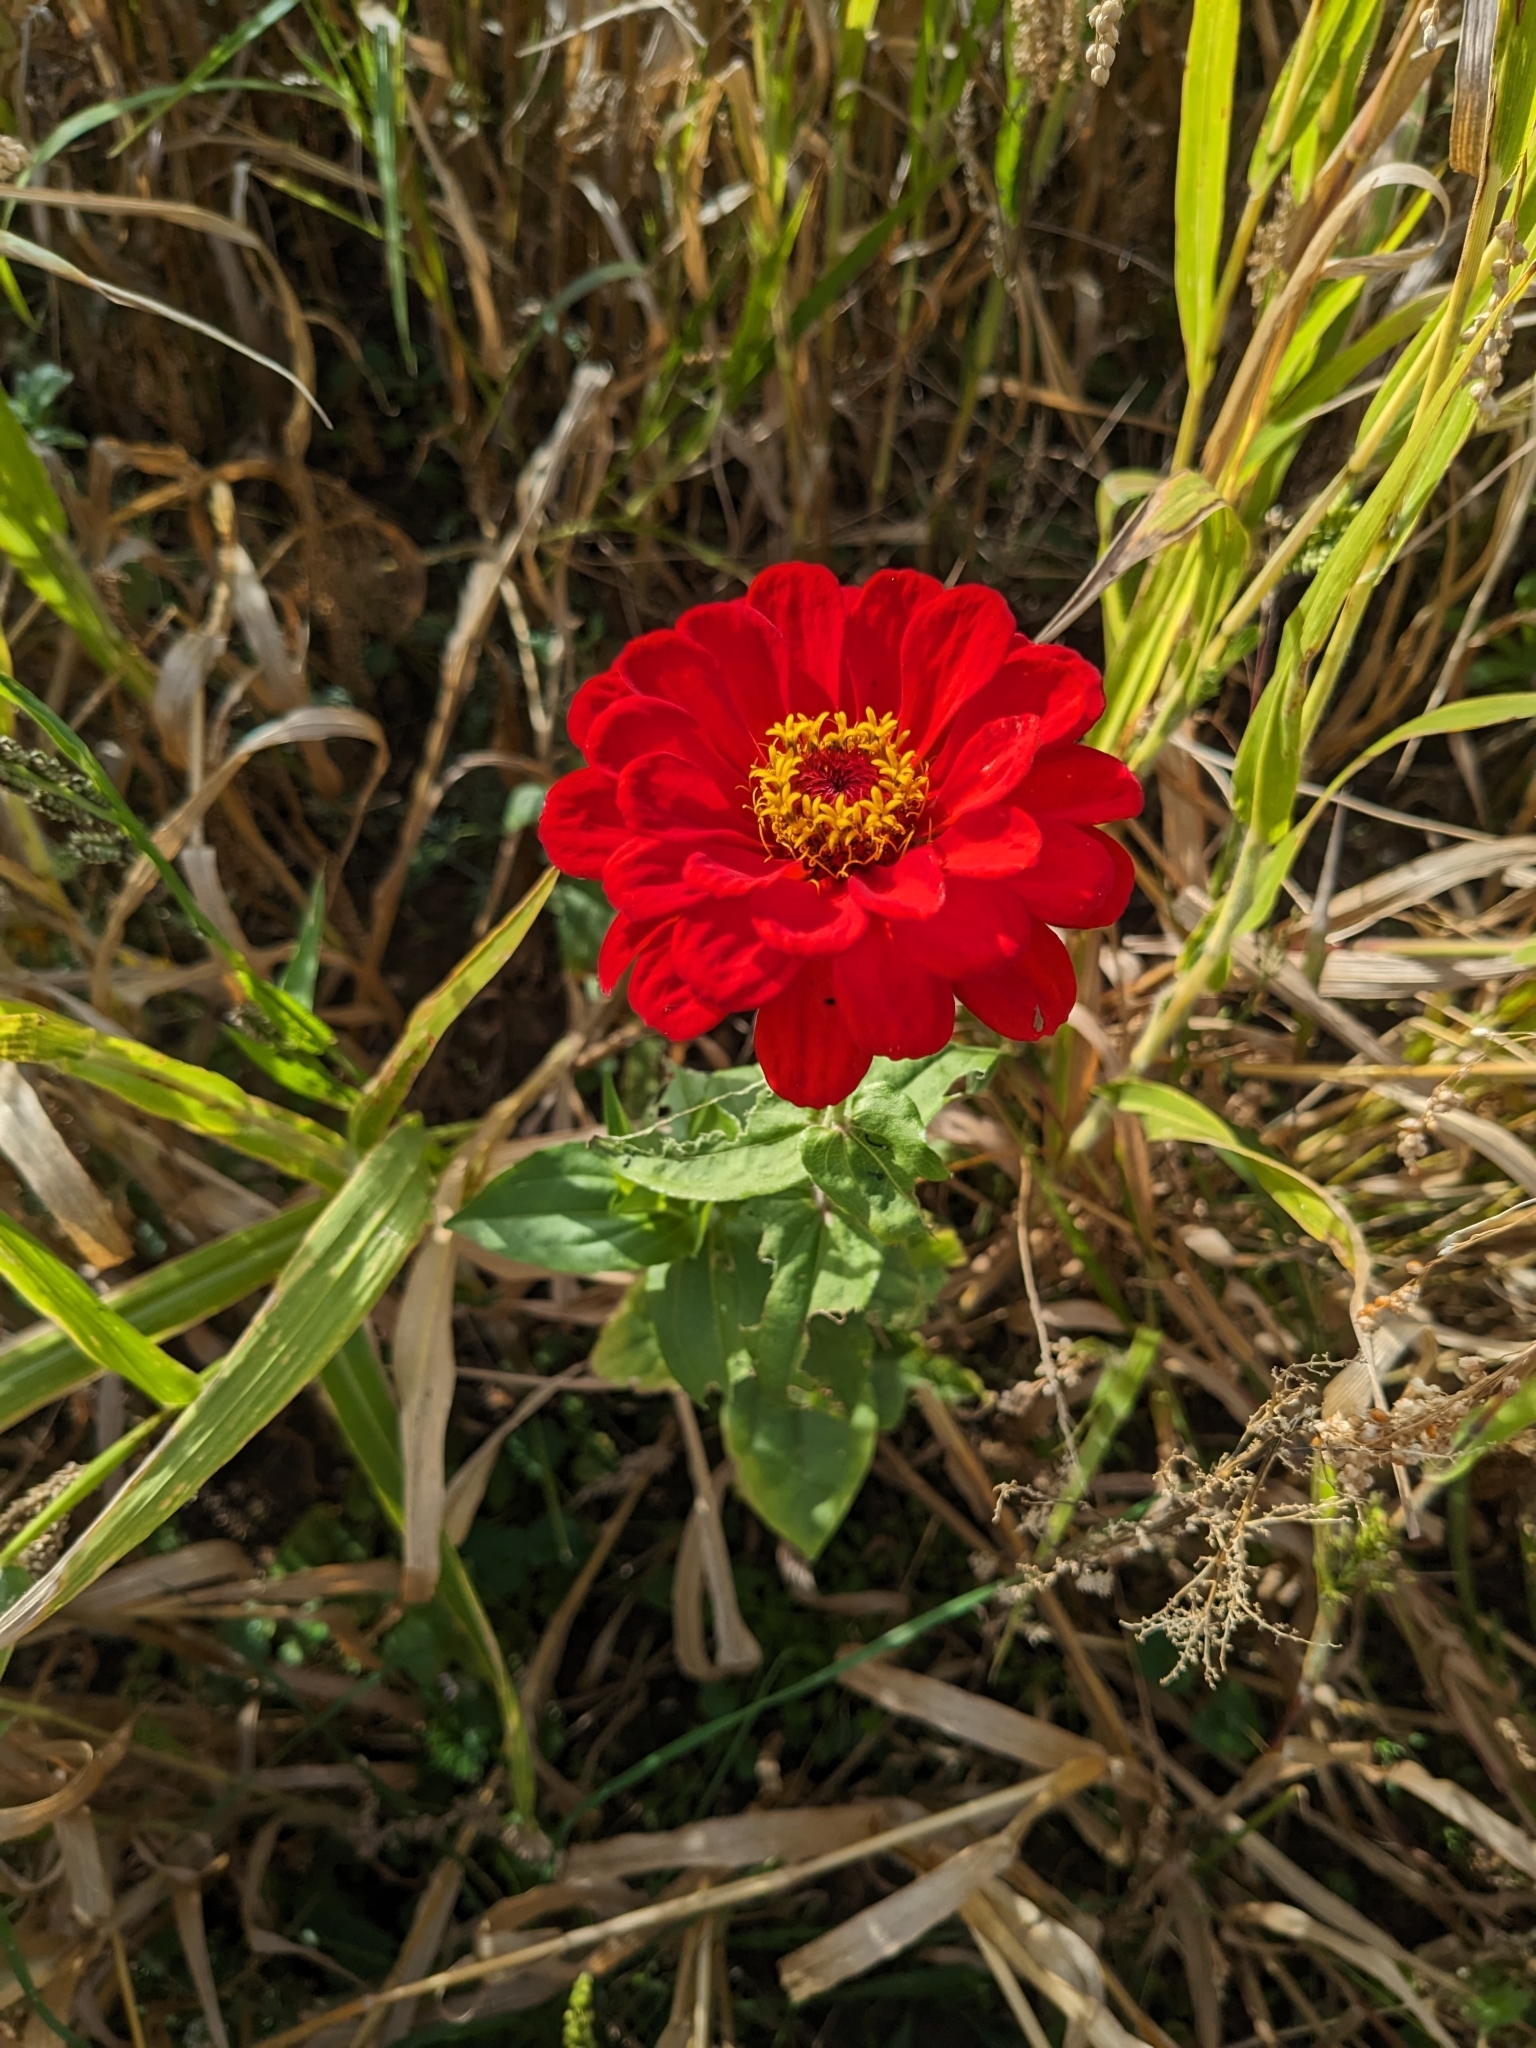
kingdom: Plantae
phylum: Tracheophyta
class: Magnoliopsida
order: Asterales
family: Asteraceae
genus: Zinnia
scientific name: Zinnia elegans
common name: Youth-and-age
